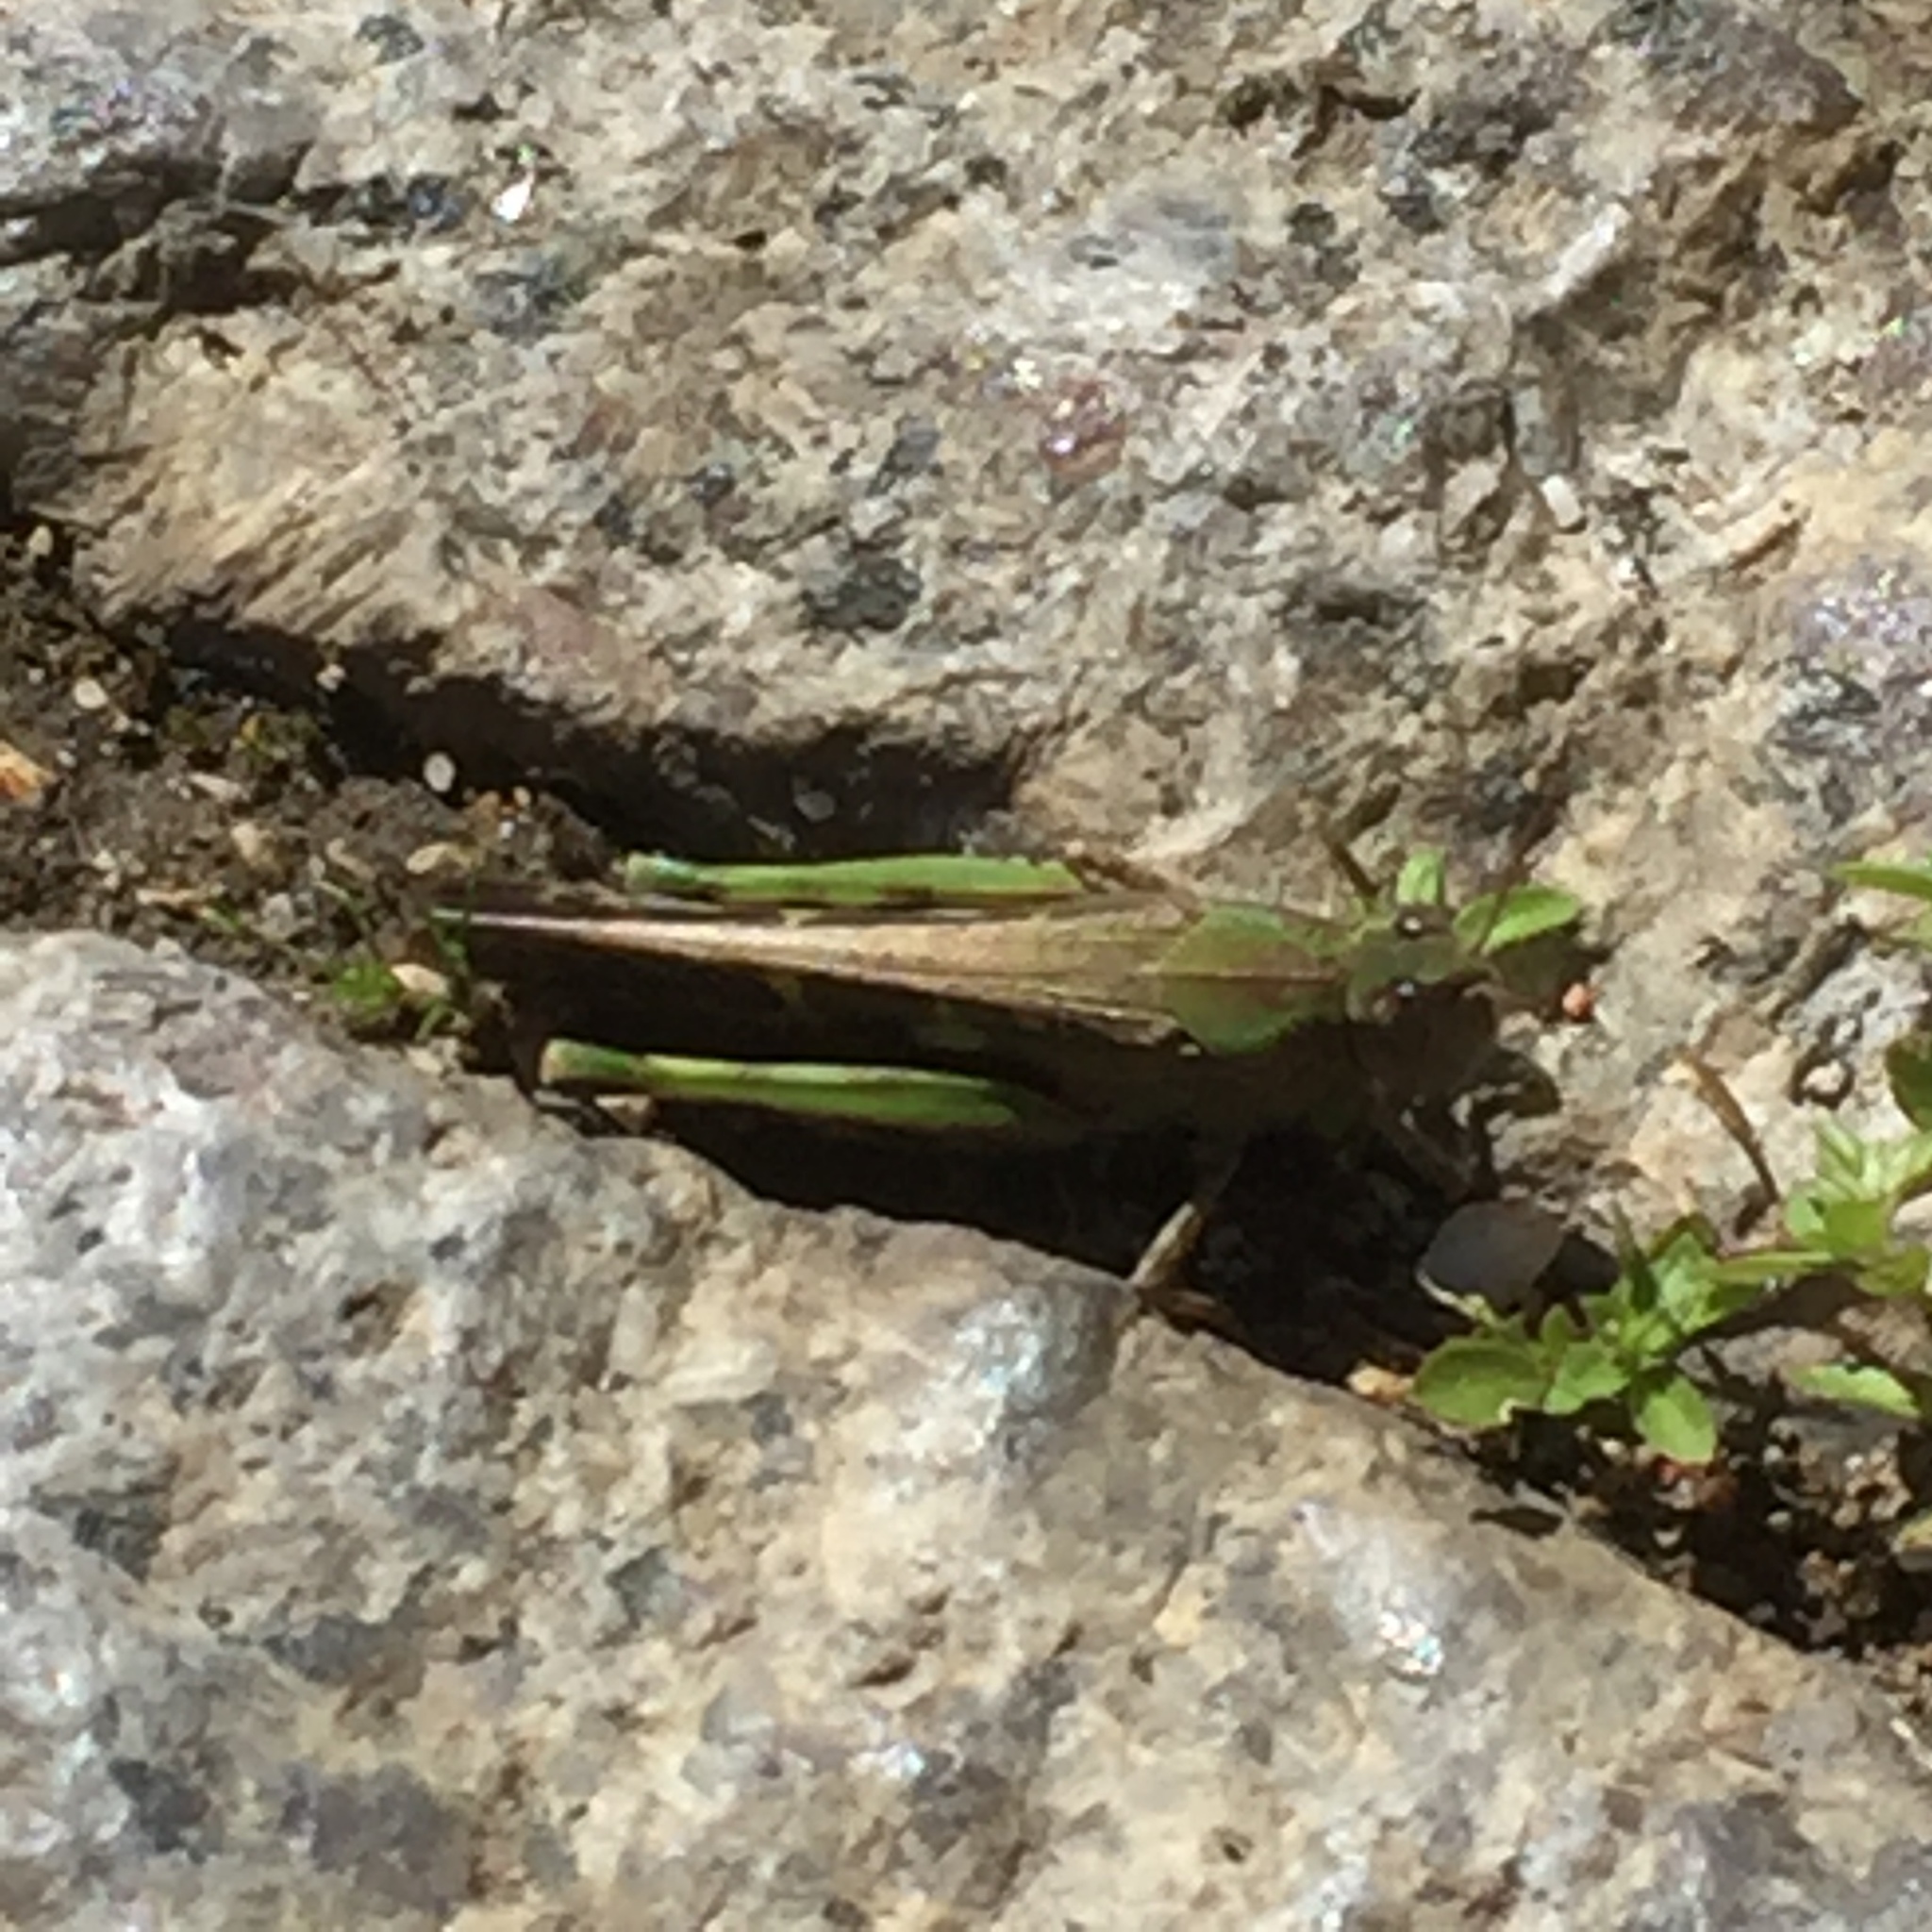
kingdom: Animalia
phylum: Arthropoda
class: Insecta
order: Orthoptera
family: Acrididae
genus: Aiolopus
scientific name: Aiolopus strepens
